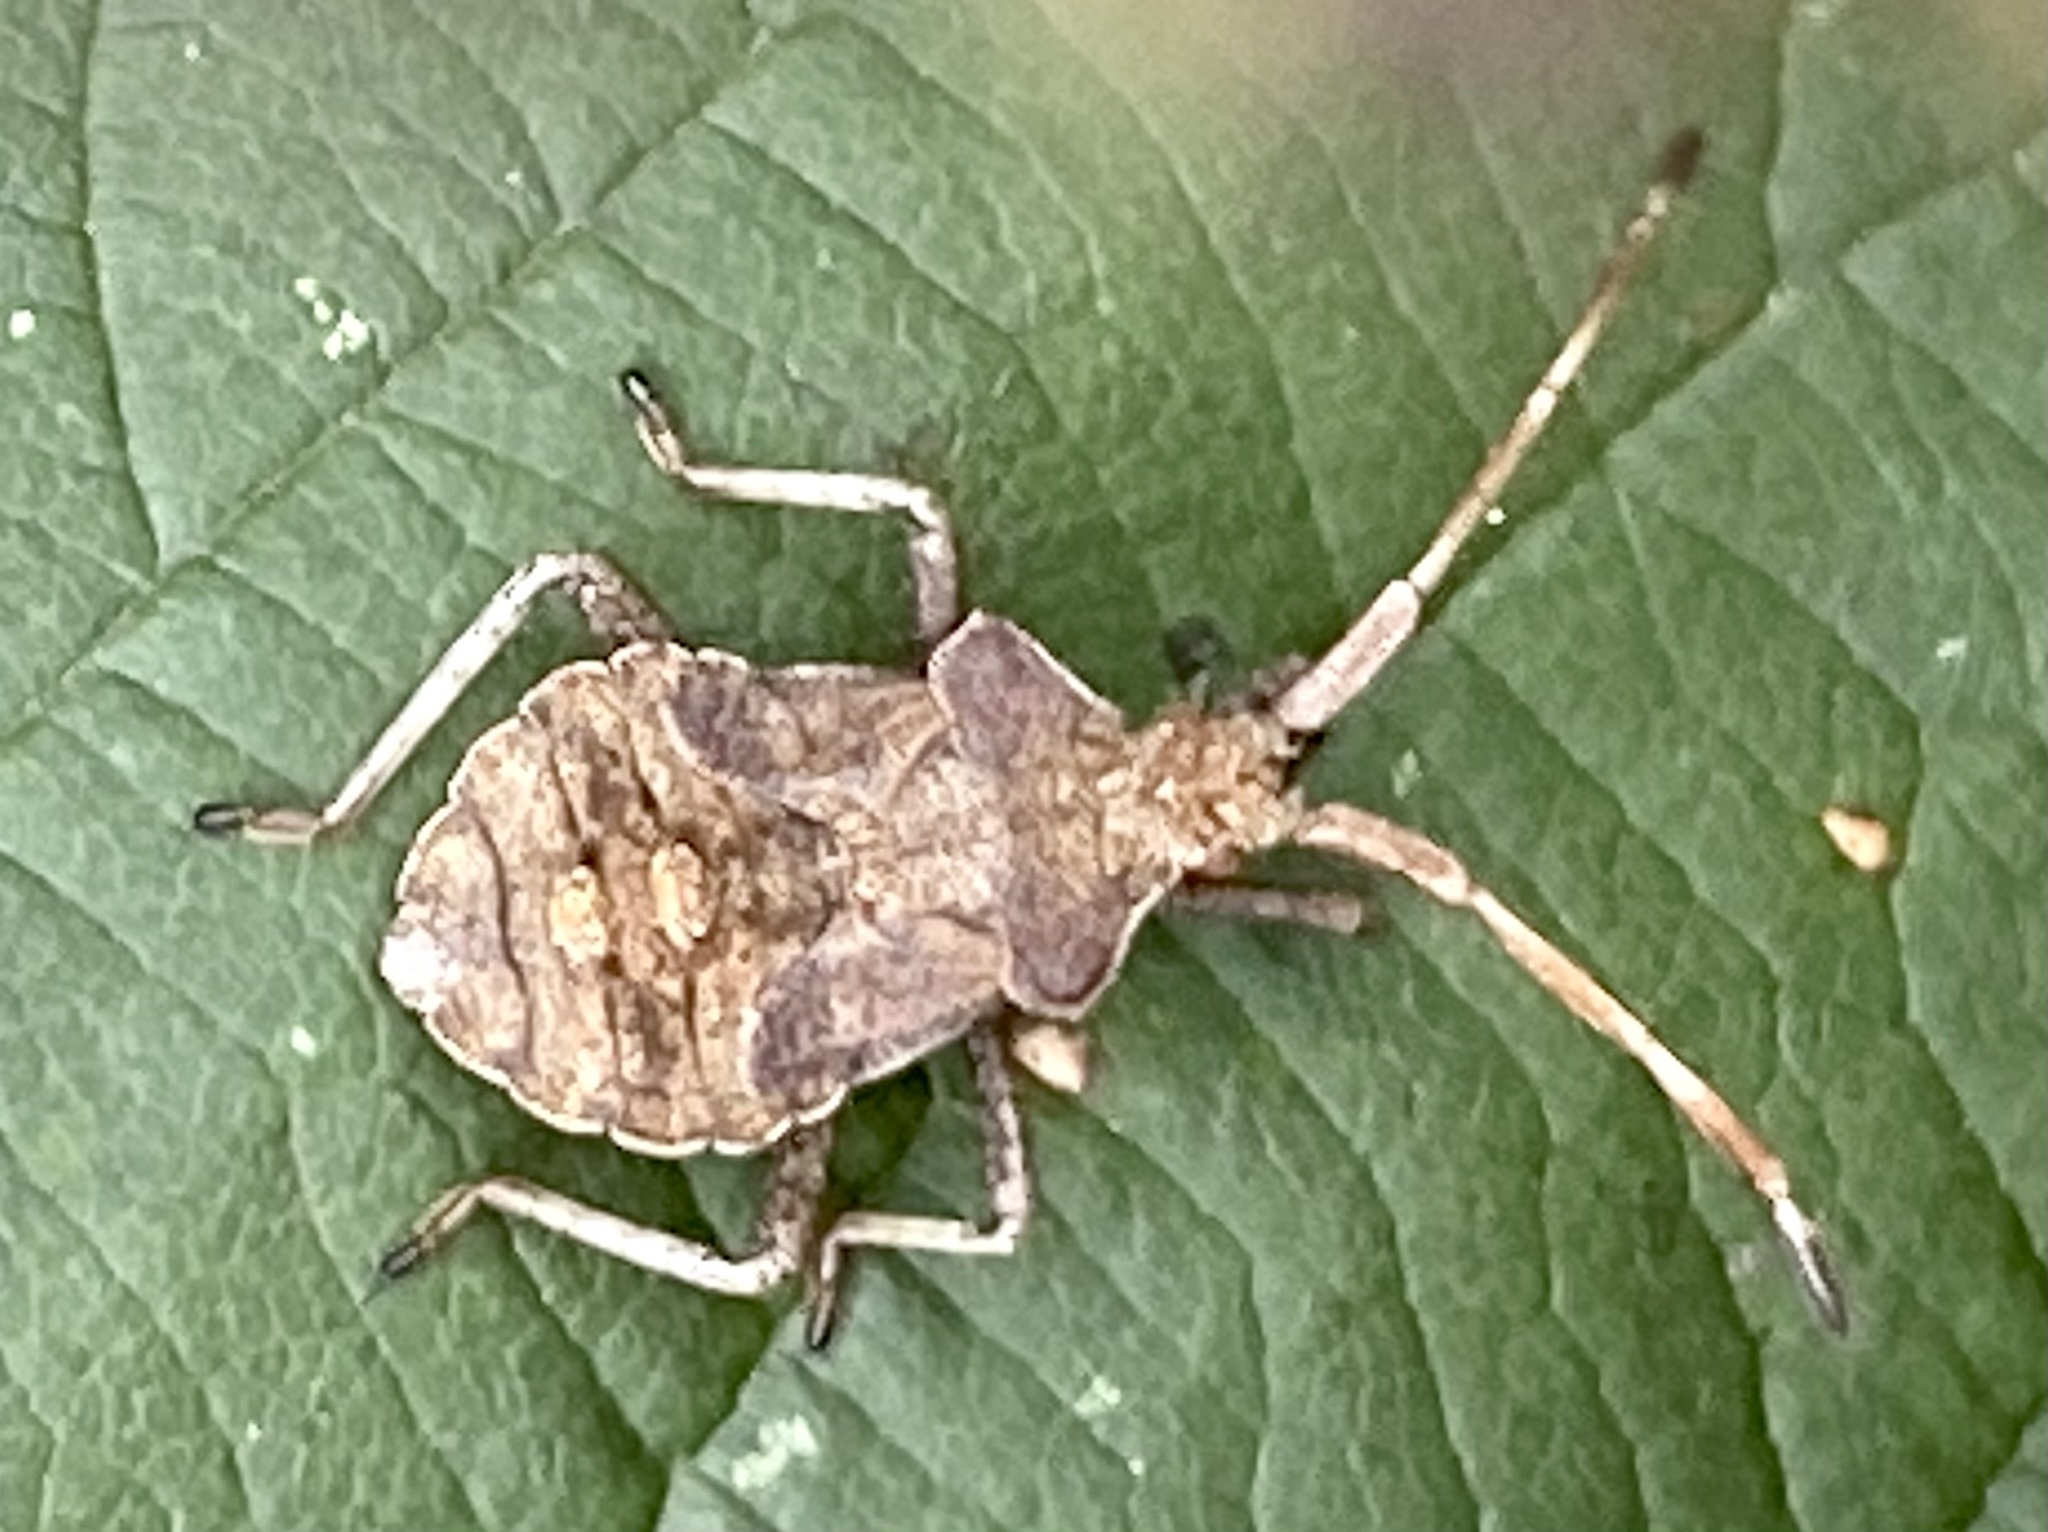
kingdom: Animalia
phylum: Arthropoda
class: Insecta
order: Hemiptera
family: Coreidae
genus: Coreus
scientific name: Coreus marginatus
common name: Dock bug
